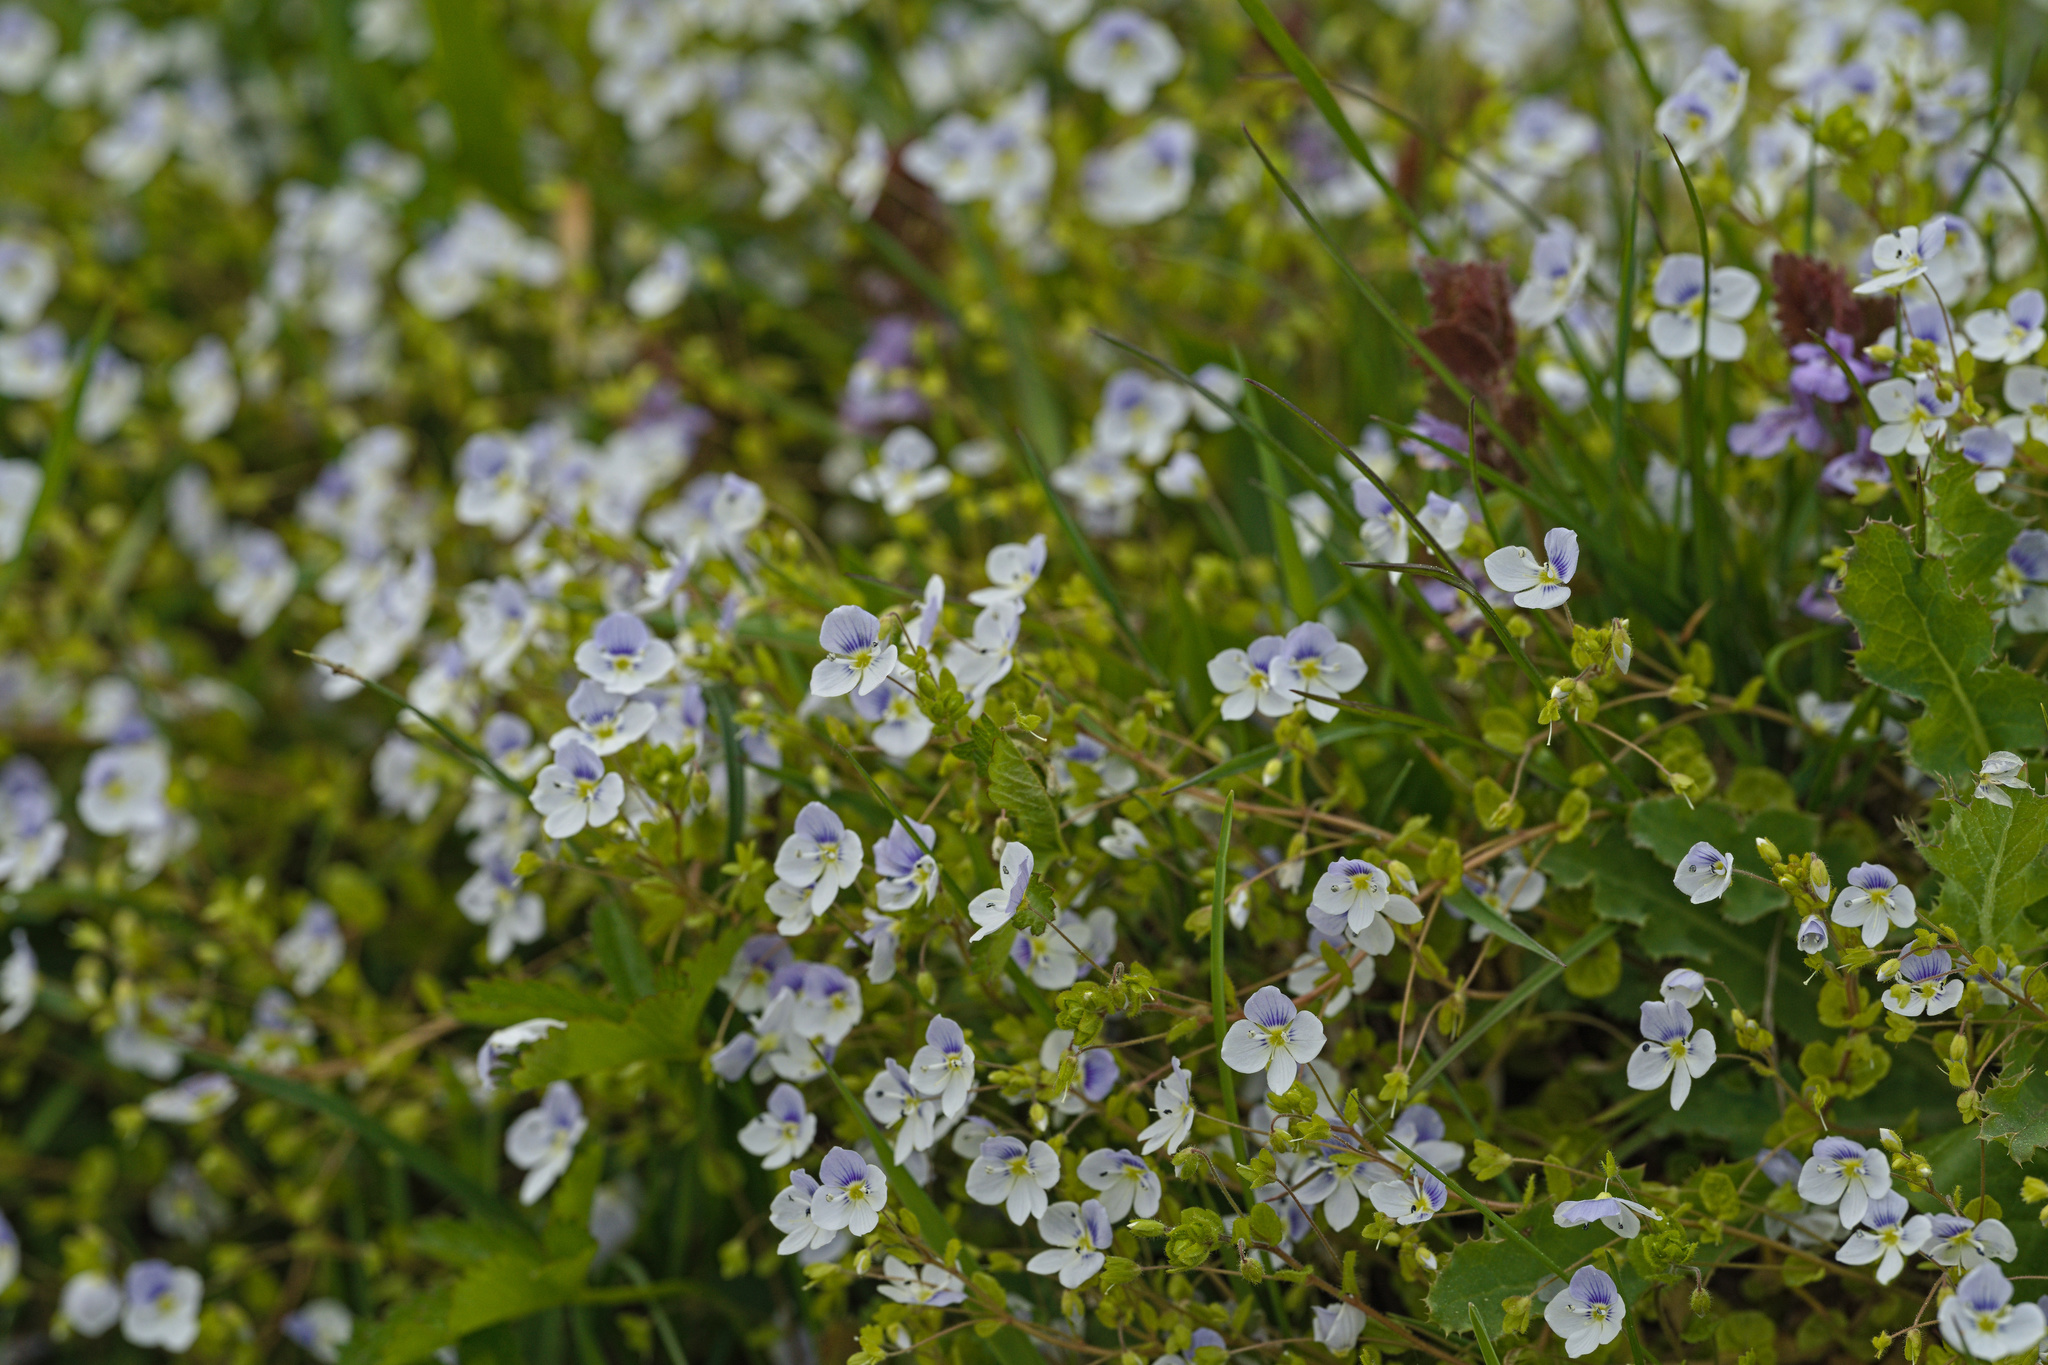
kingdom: Plantae
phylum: Tracheophyta
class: Magnoliopsida
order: Lamiales
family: Plantaginaceae
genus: Veronica
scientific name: Veronica filiformis
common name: Slender speedwell
